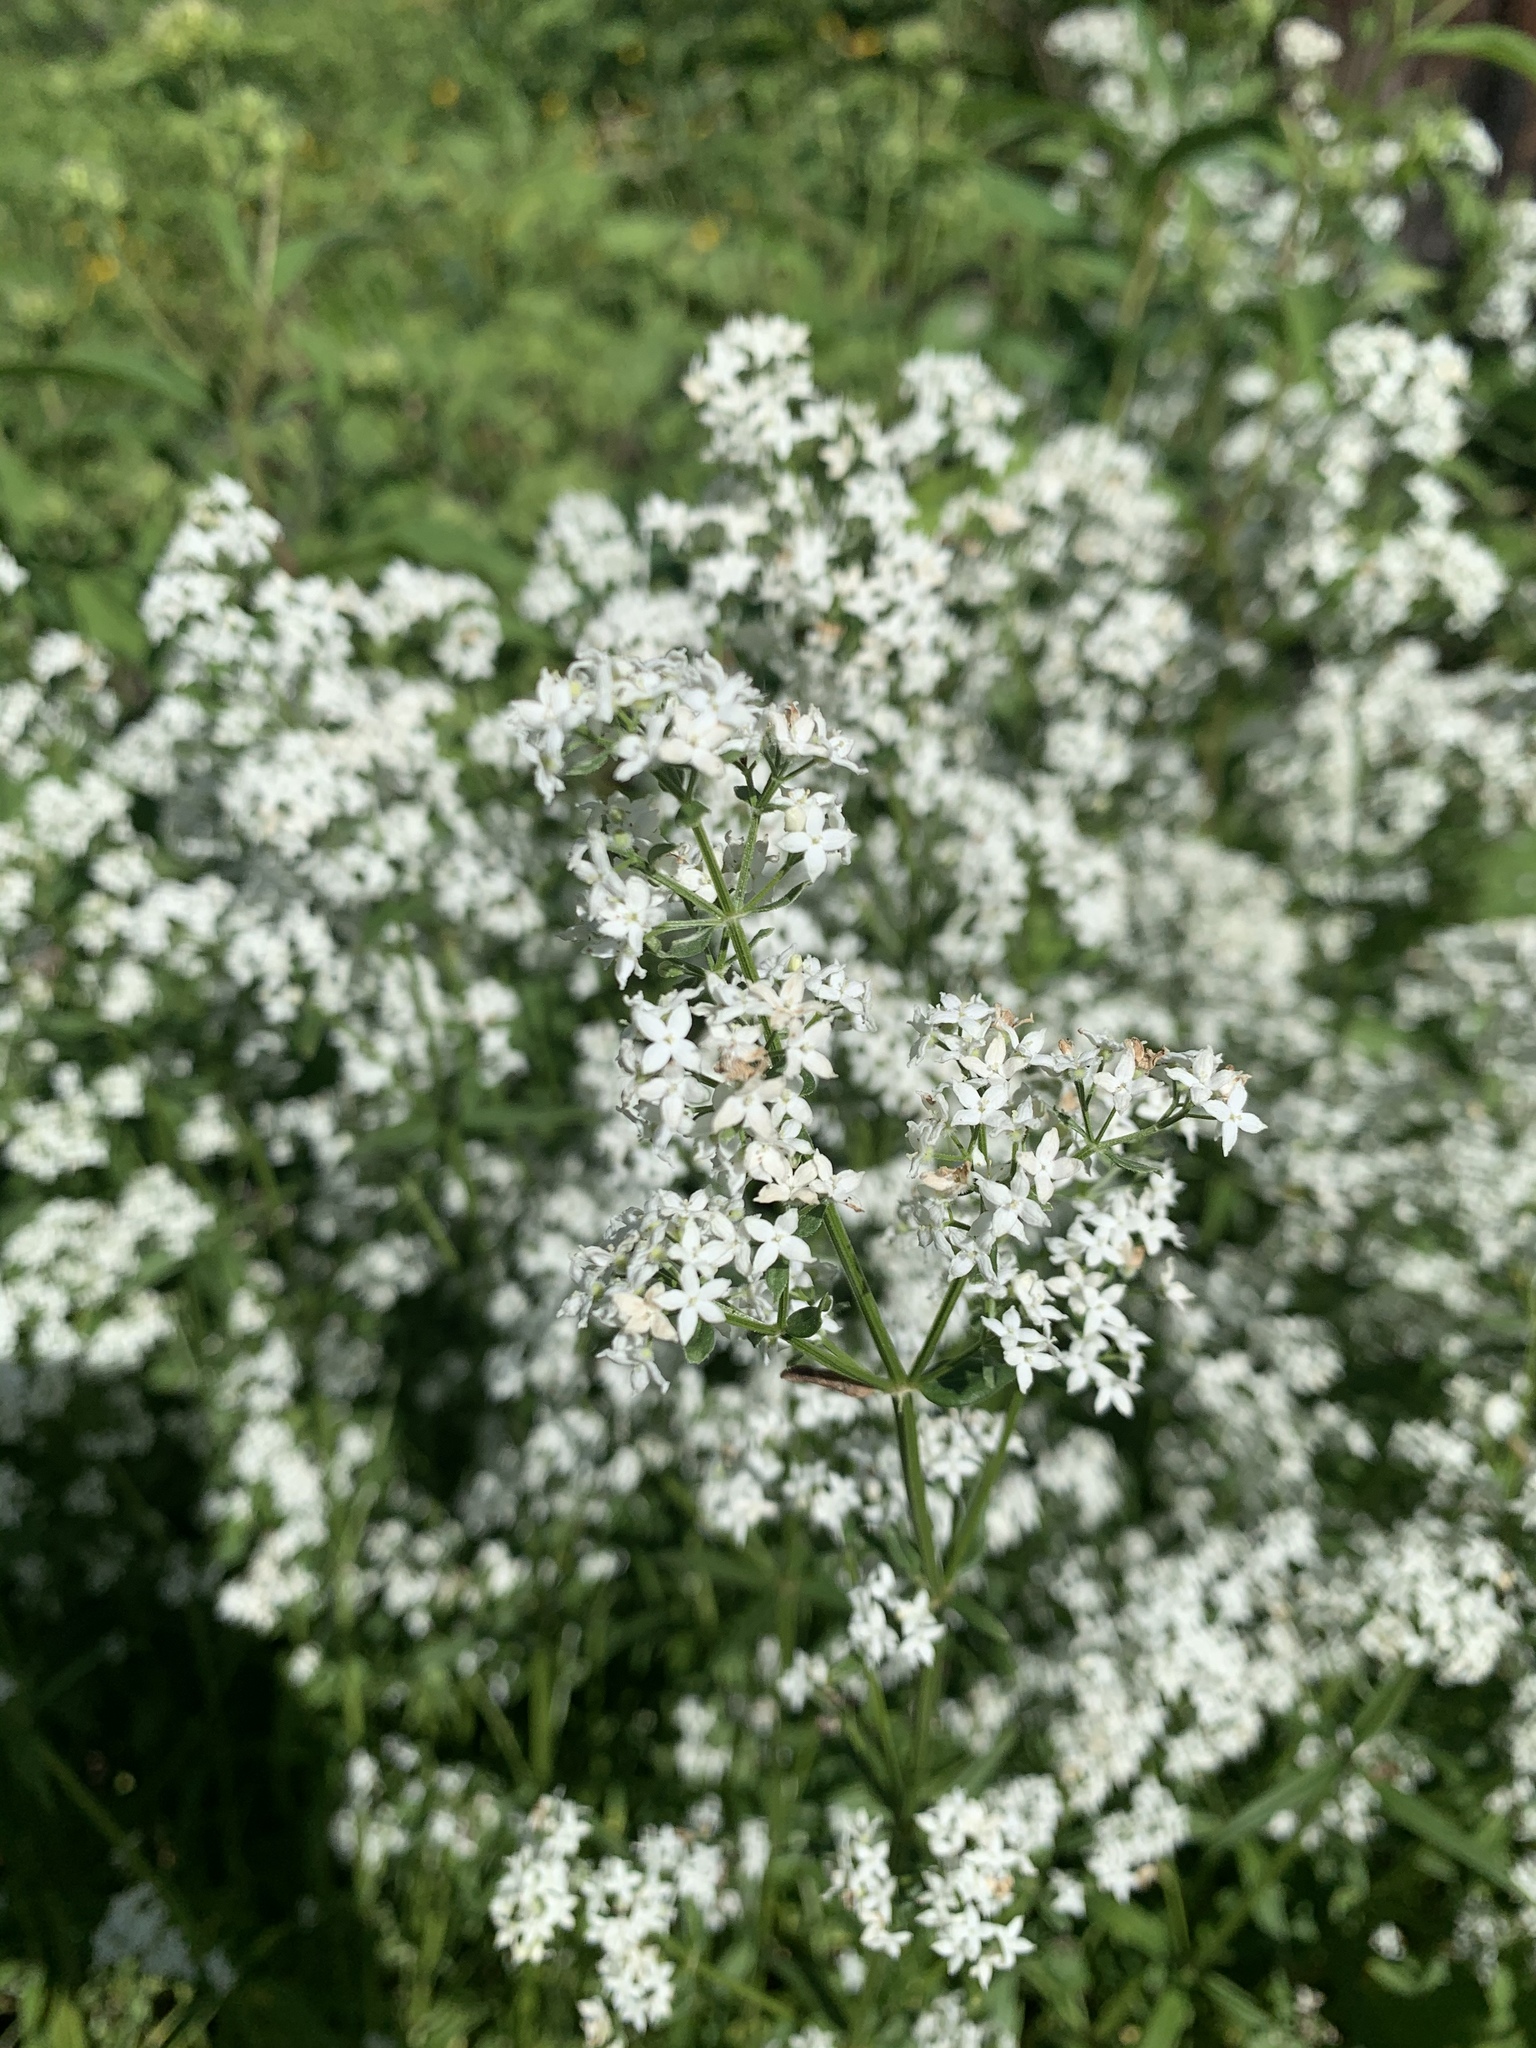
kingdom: Plantae
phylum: Tracheophyta
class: Magnoliopsida
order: Gentianales
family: Rubiaceae
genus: Galium
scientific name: Galium boreale
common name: Northern bedstraw
